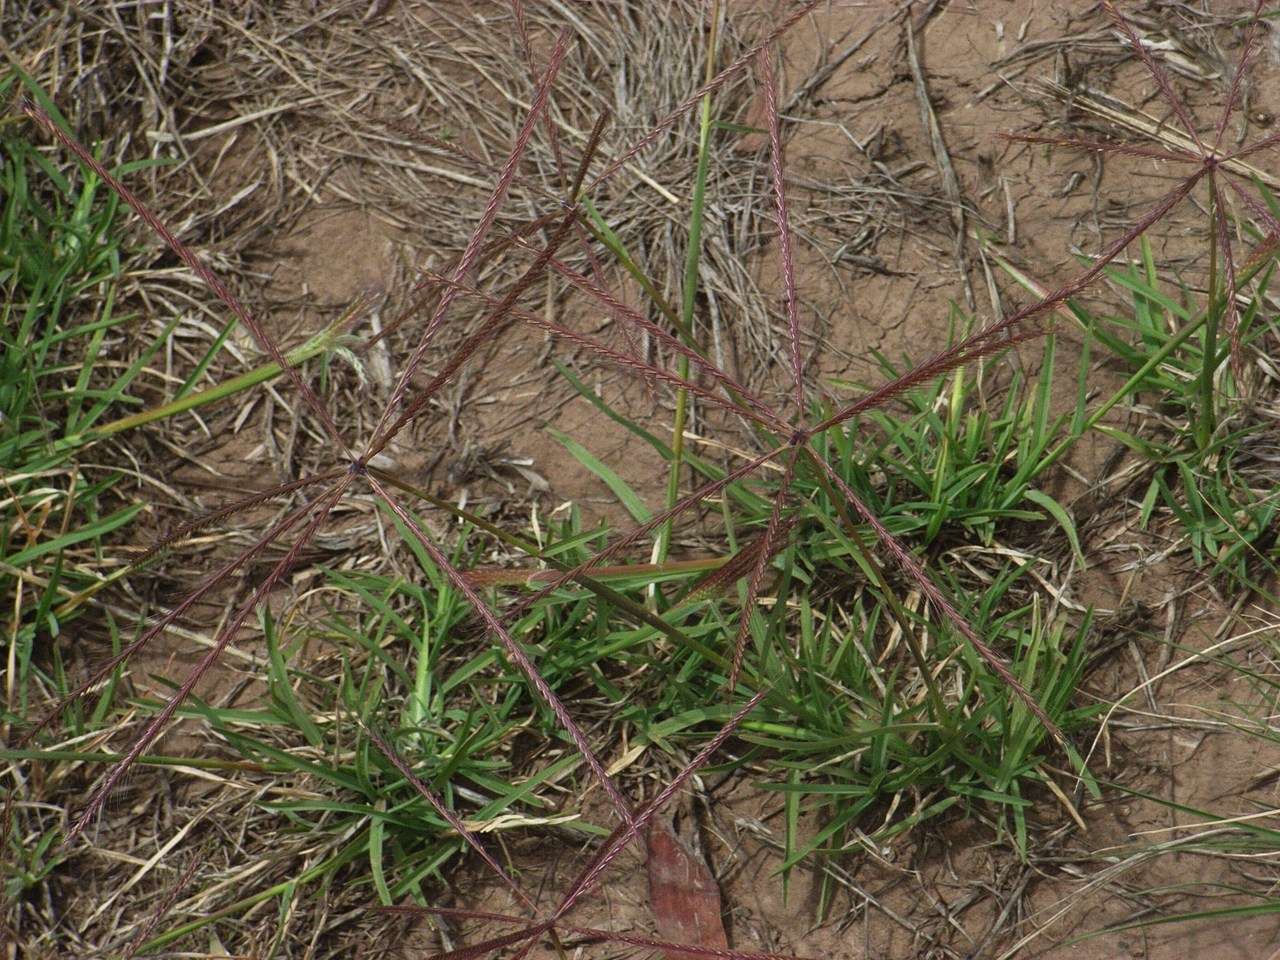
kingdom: Plantae
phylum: Tracheophyta
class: Liliopsida
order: Poales
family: Poaceae
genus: Chloris
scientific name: Chloris truncata
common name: Windmill-grass
